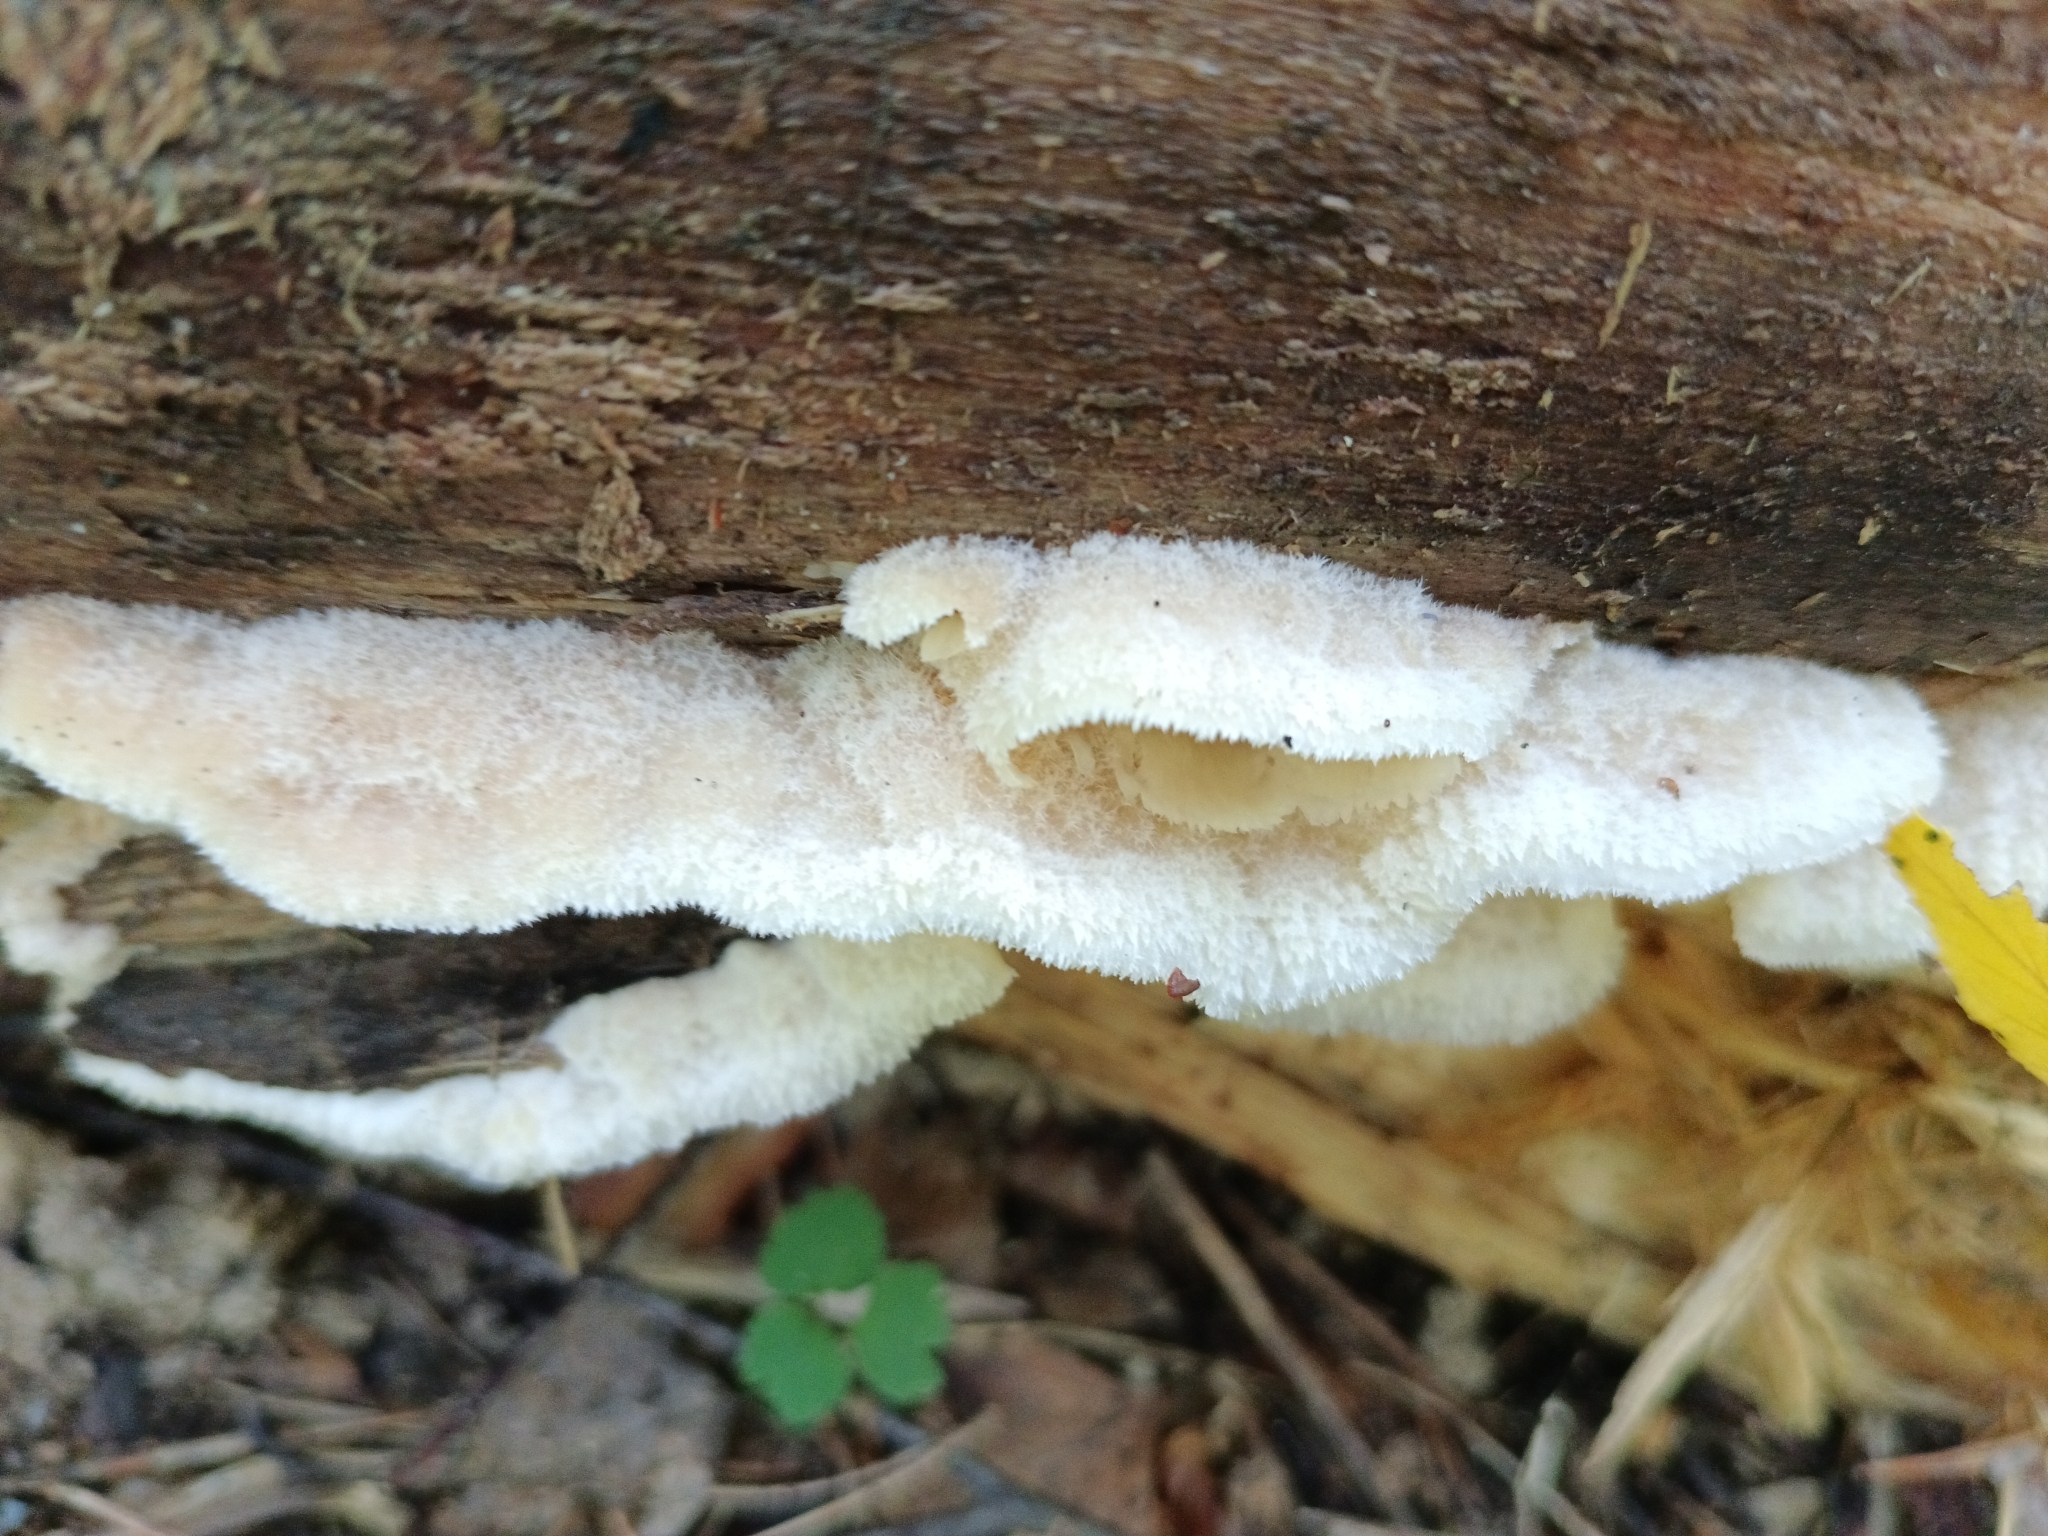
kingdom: Fungi
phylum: Basidiomycota
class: Agaricomycetes
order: Polyporales
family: Meruliaceae
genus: Phlebia
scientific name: Phlebia tremellosa
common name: Jelly rot
